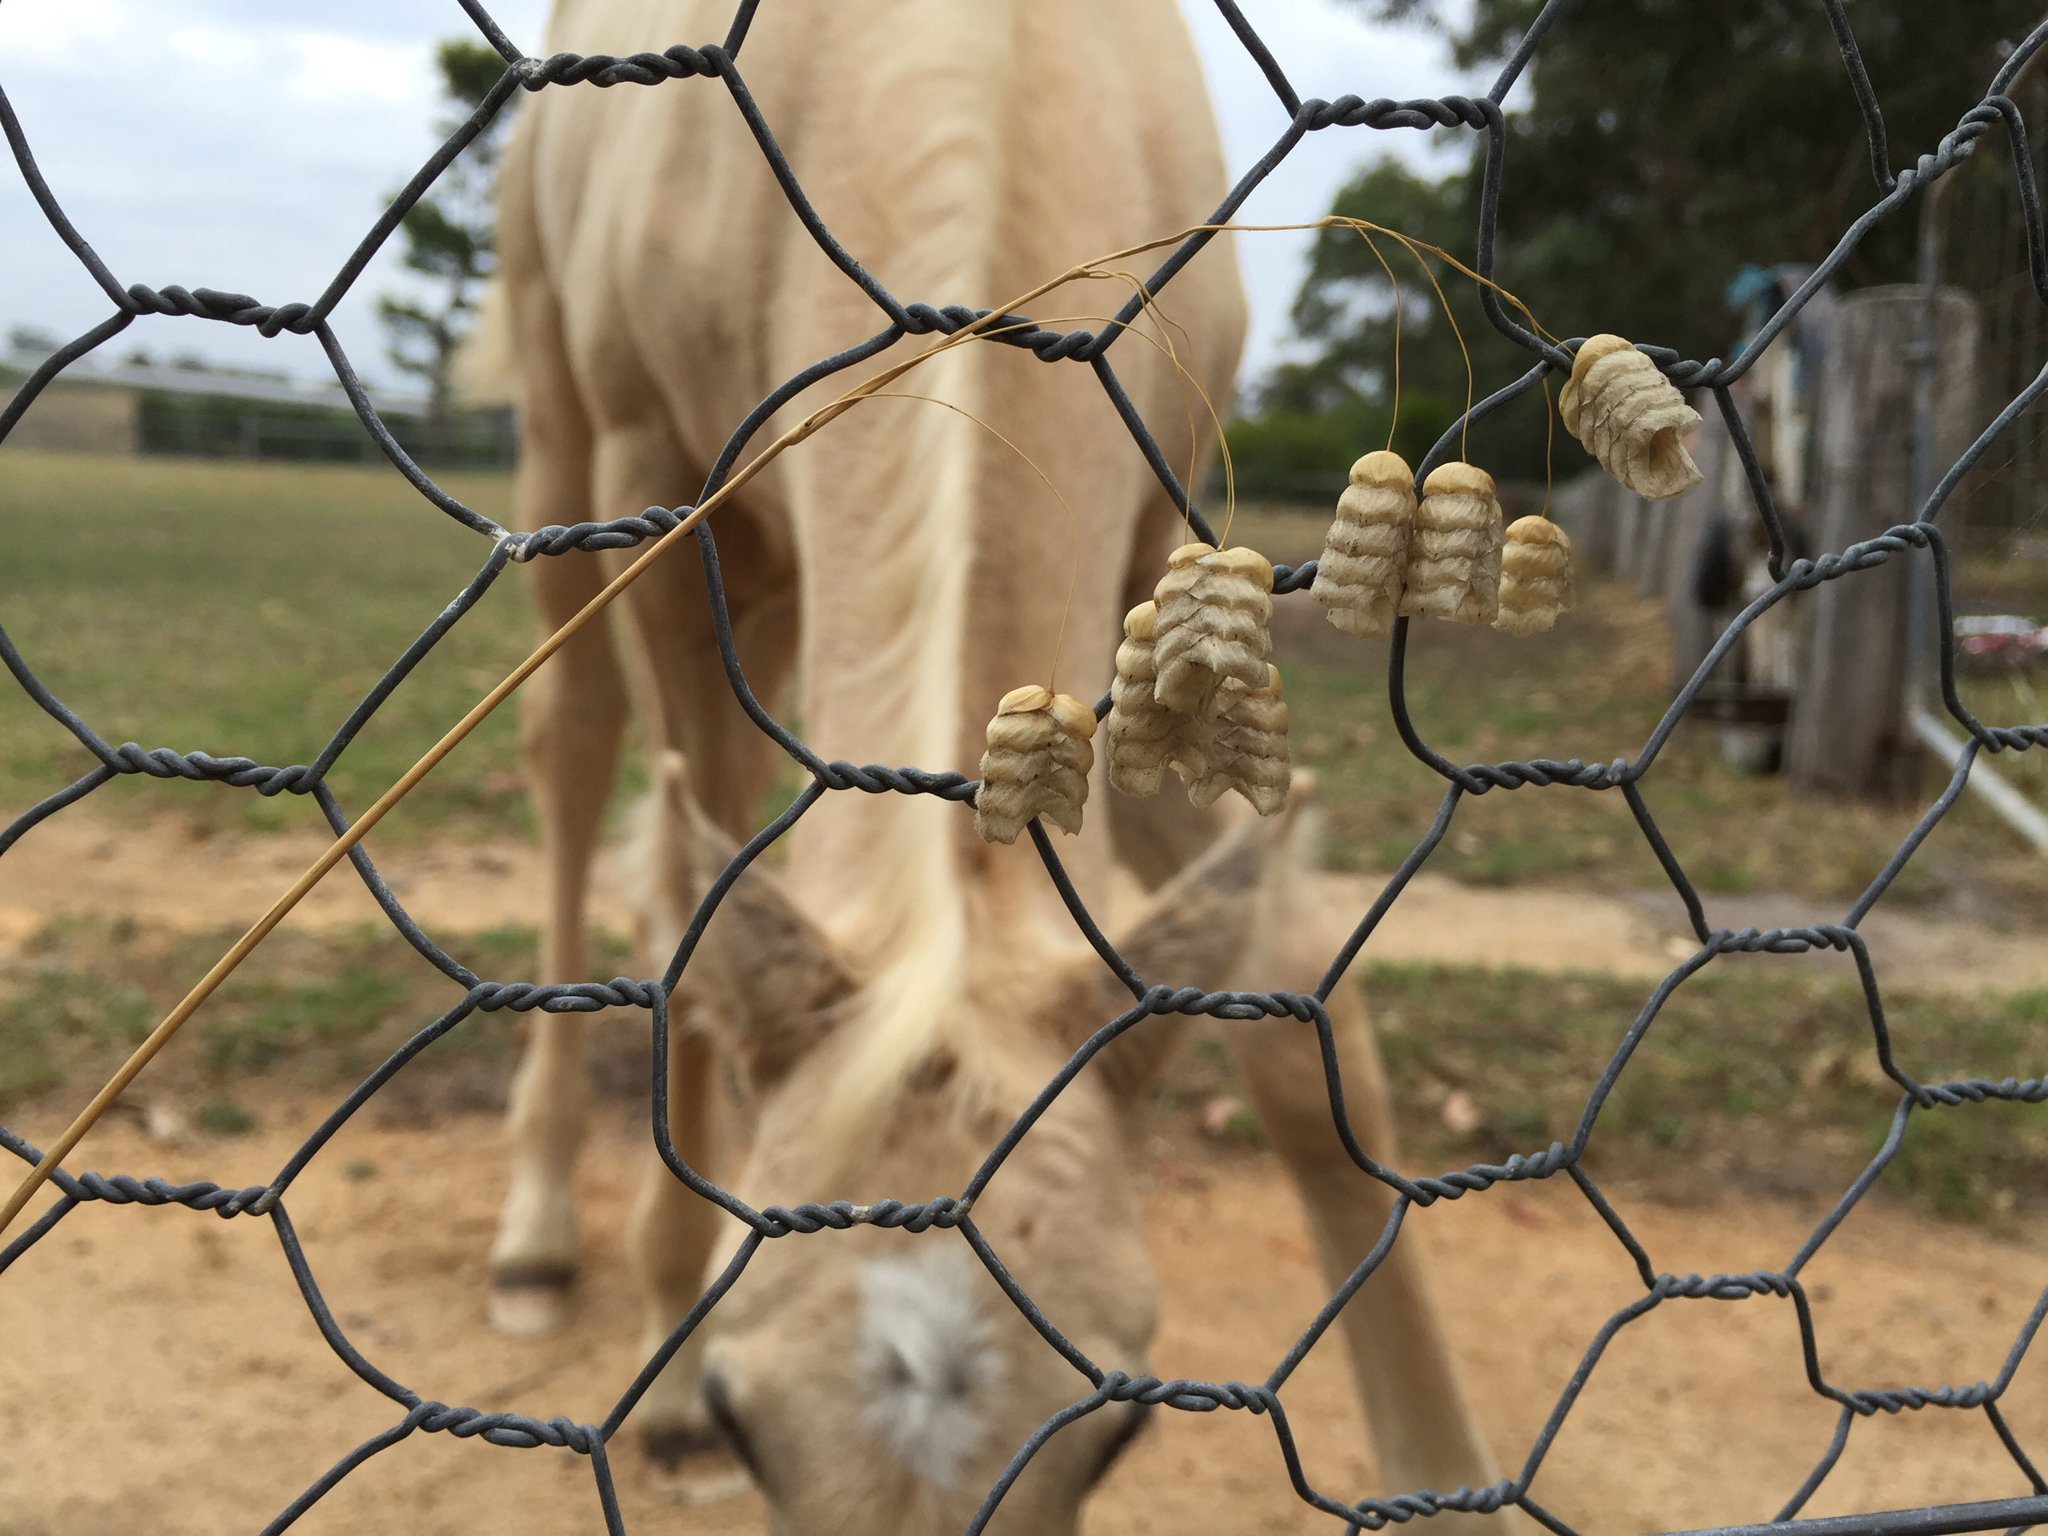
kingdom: Plantae
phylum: Tracheophyta
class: Liliopsida
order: Poales
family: Poaceae
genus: Briza
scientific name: Briza maxima
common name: Big quakinggrass
